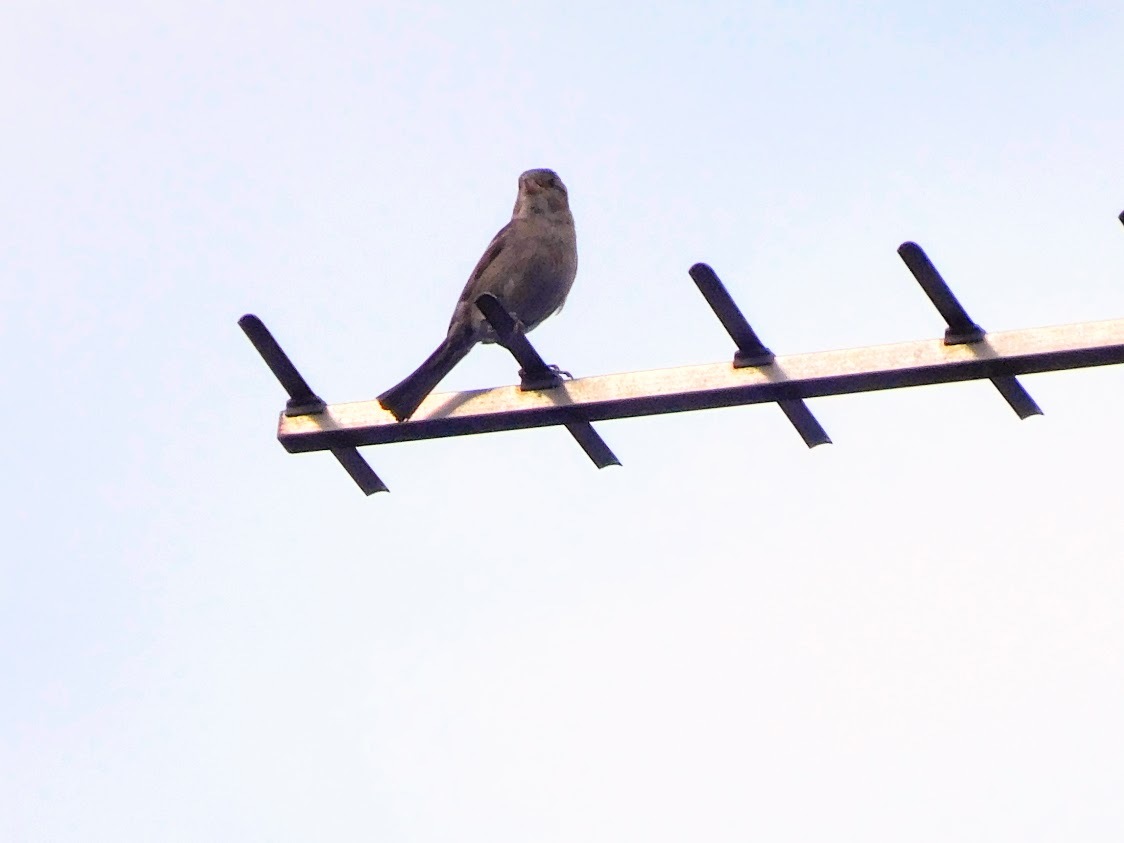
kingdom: Animalia
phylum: Chordata
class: Aves
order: Passeriformes
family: Passeridae
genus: Passer
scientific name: Passer domesticus
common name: House sparrow
